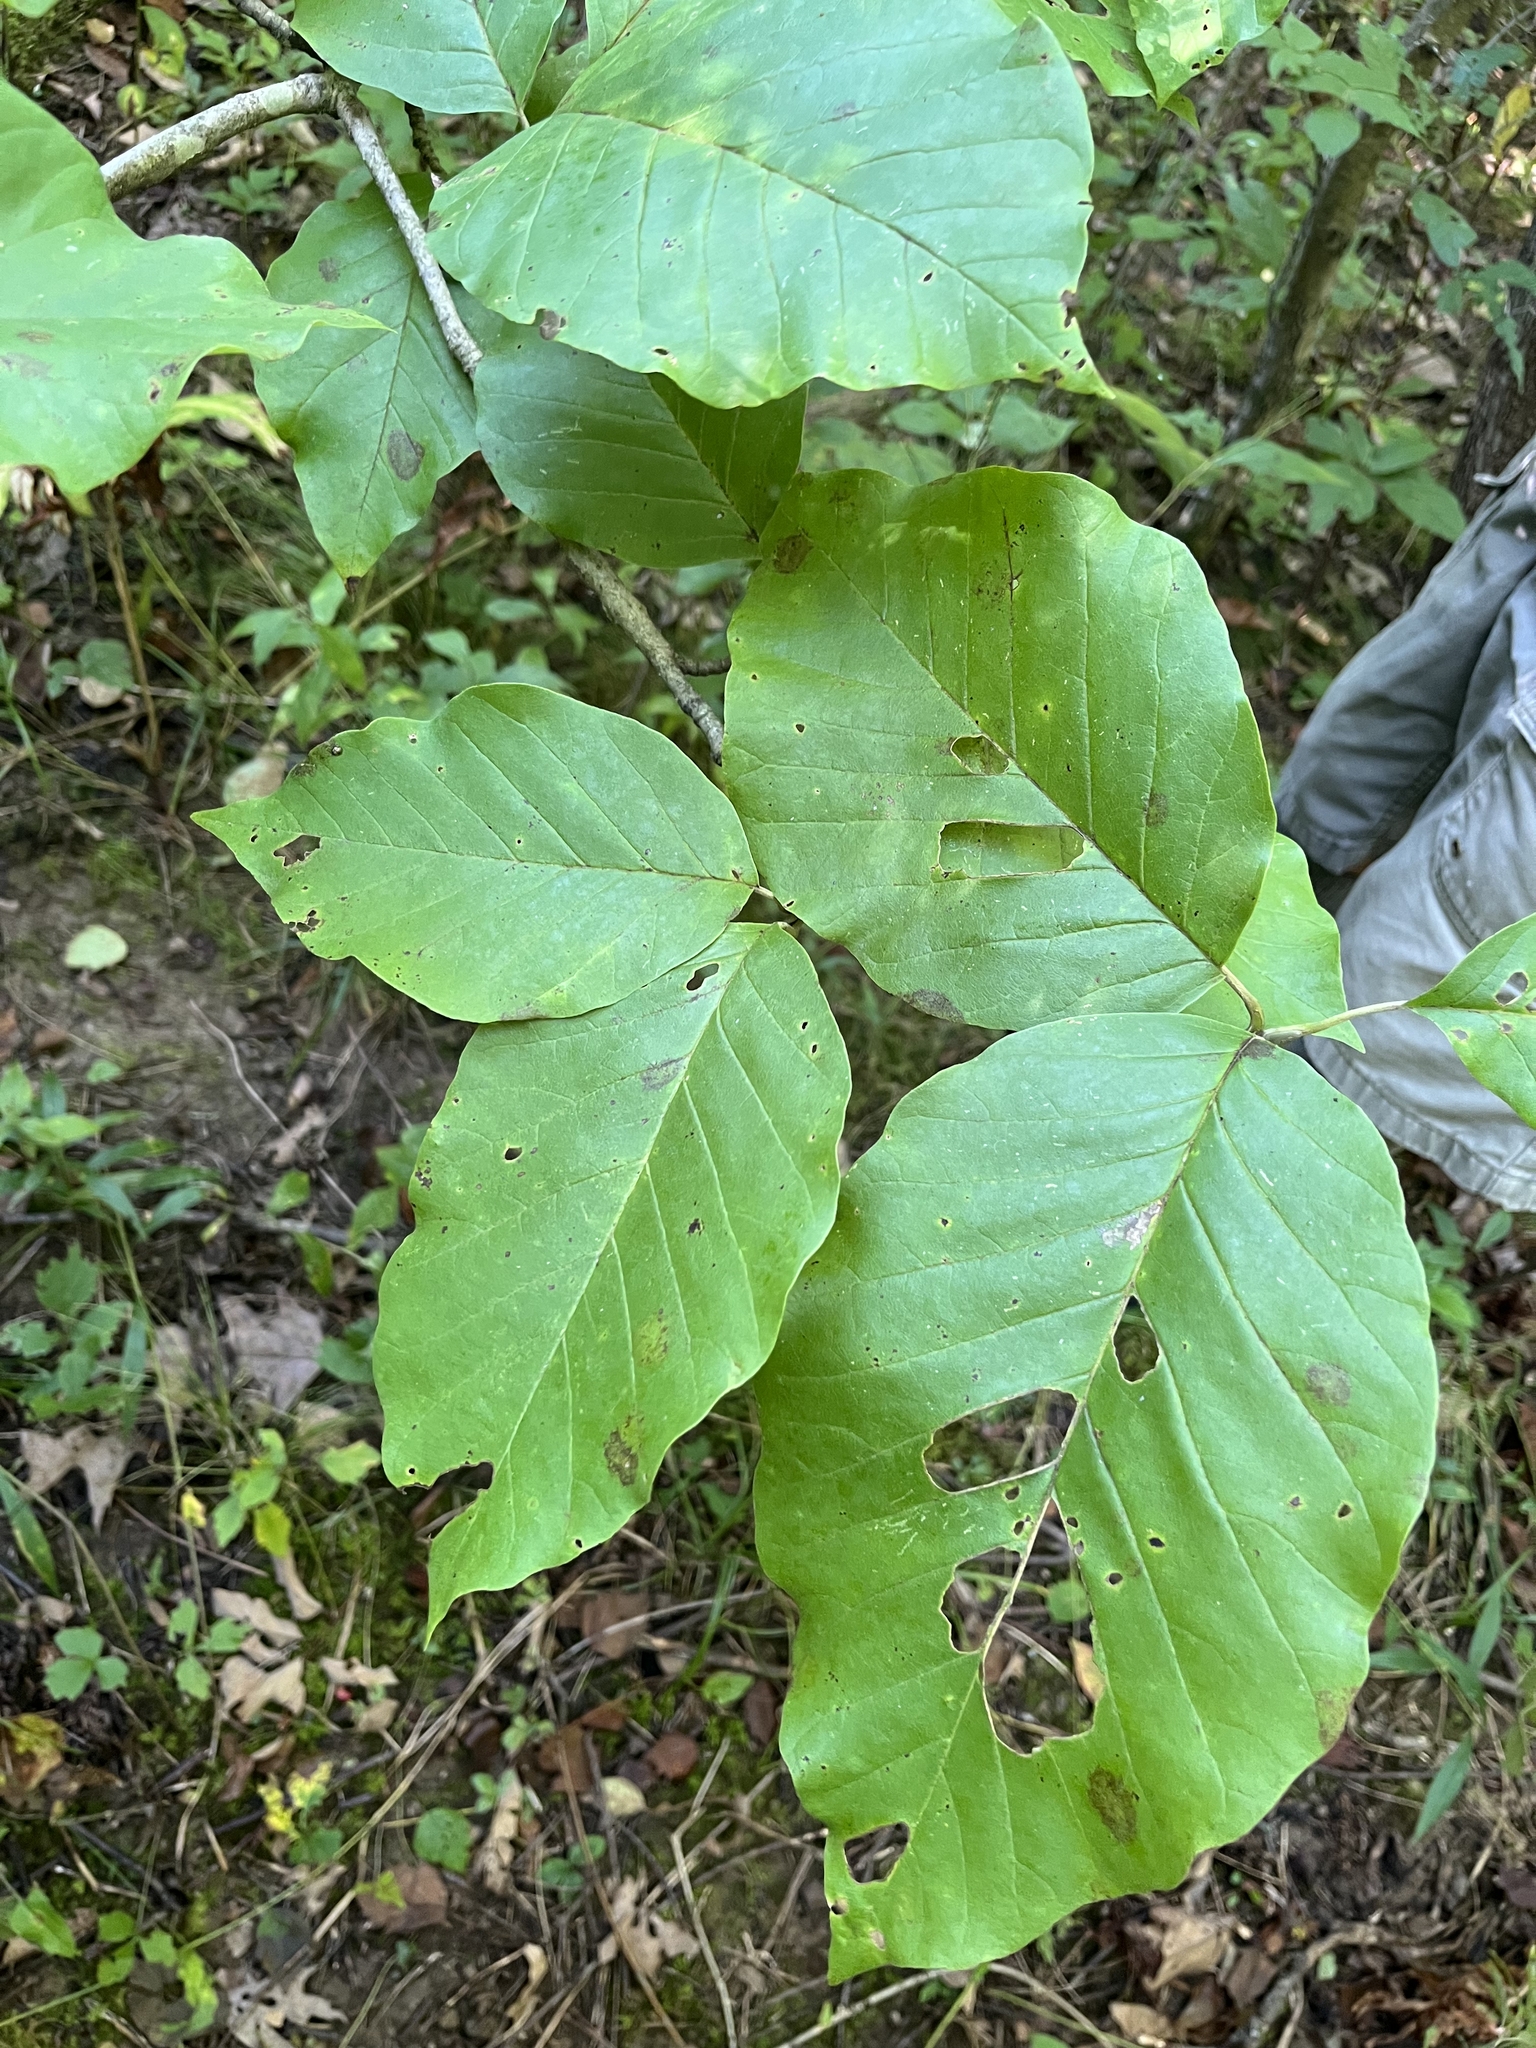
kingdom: Plantae
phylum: Tracheophyta
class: Magnoliopsida
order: Magnoliales
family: Magnoliaceae
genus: Magnolia
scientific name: Magnolia acuminata
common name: Cucumber magnolia
